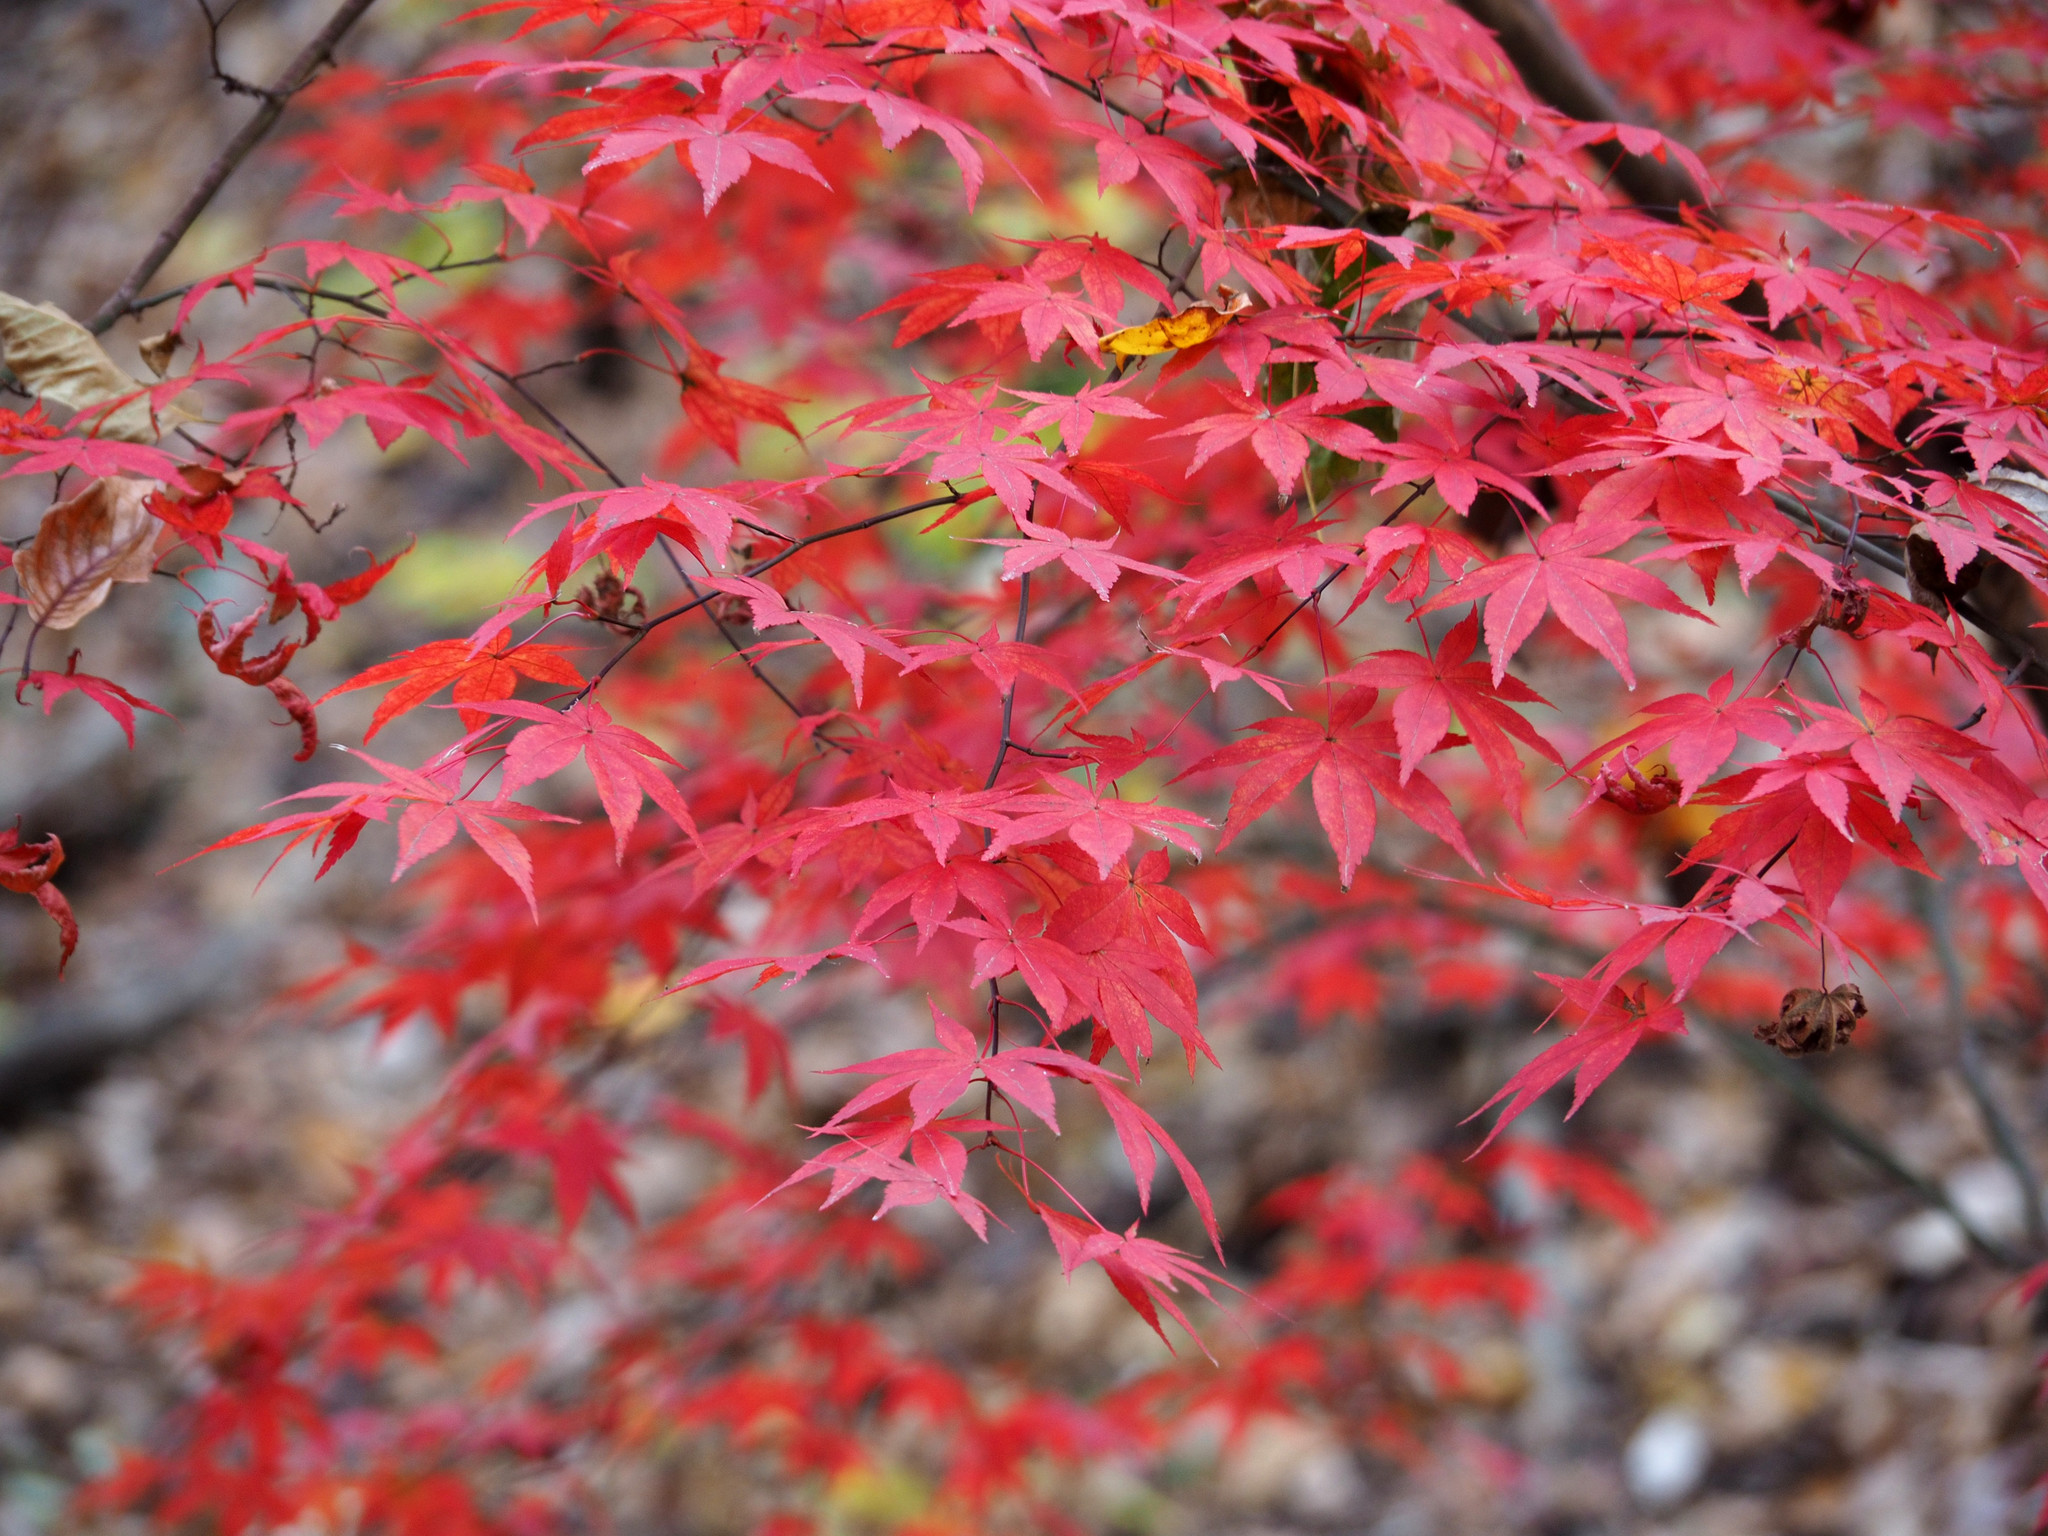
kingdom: Plantae
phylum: Tracheophyta
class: Magnoliopsida
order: Sapindales
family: Sapindaceae
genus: Acer
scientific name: Acer palmatum
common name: Japanese maple
